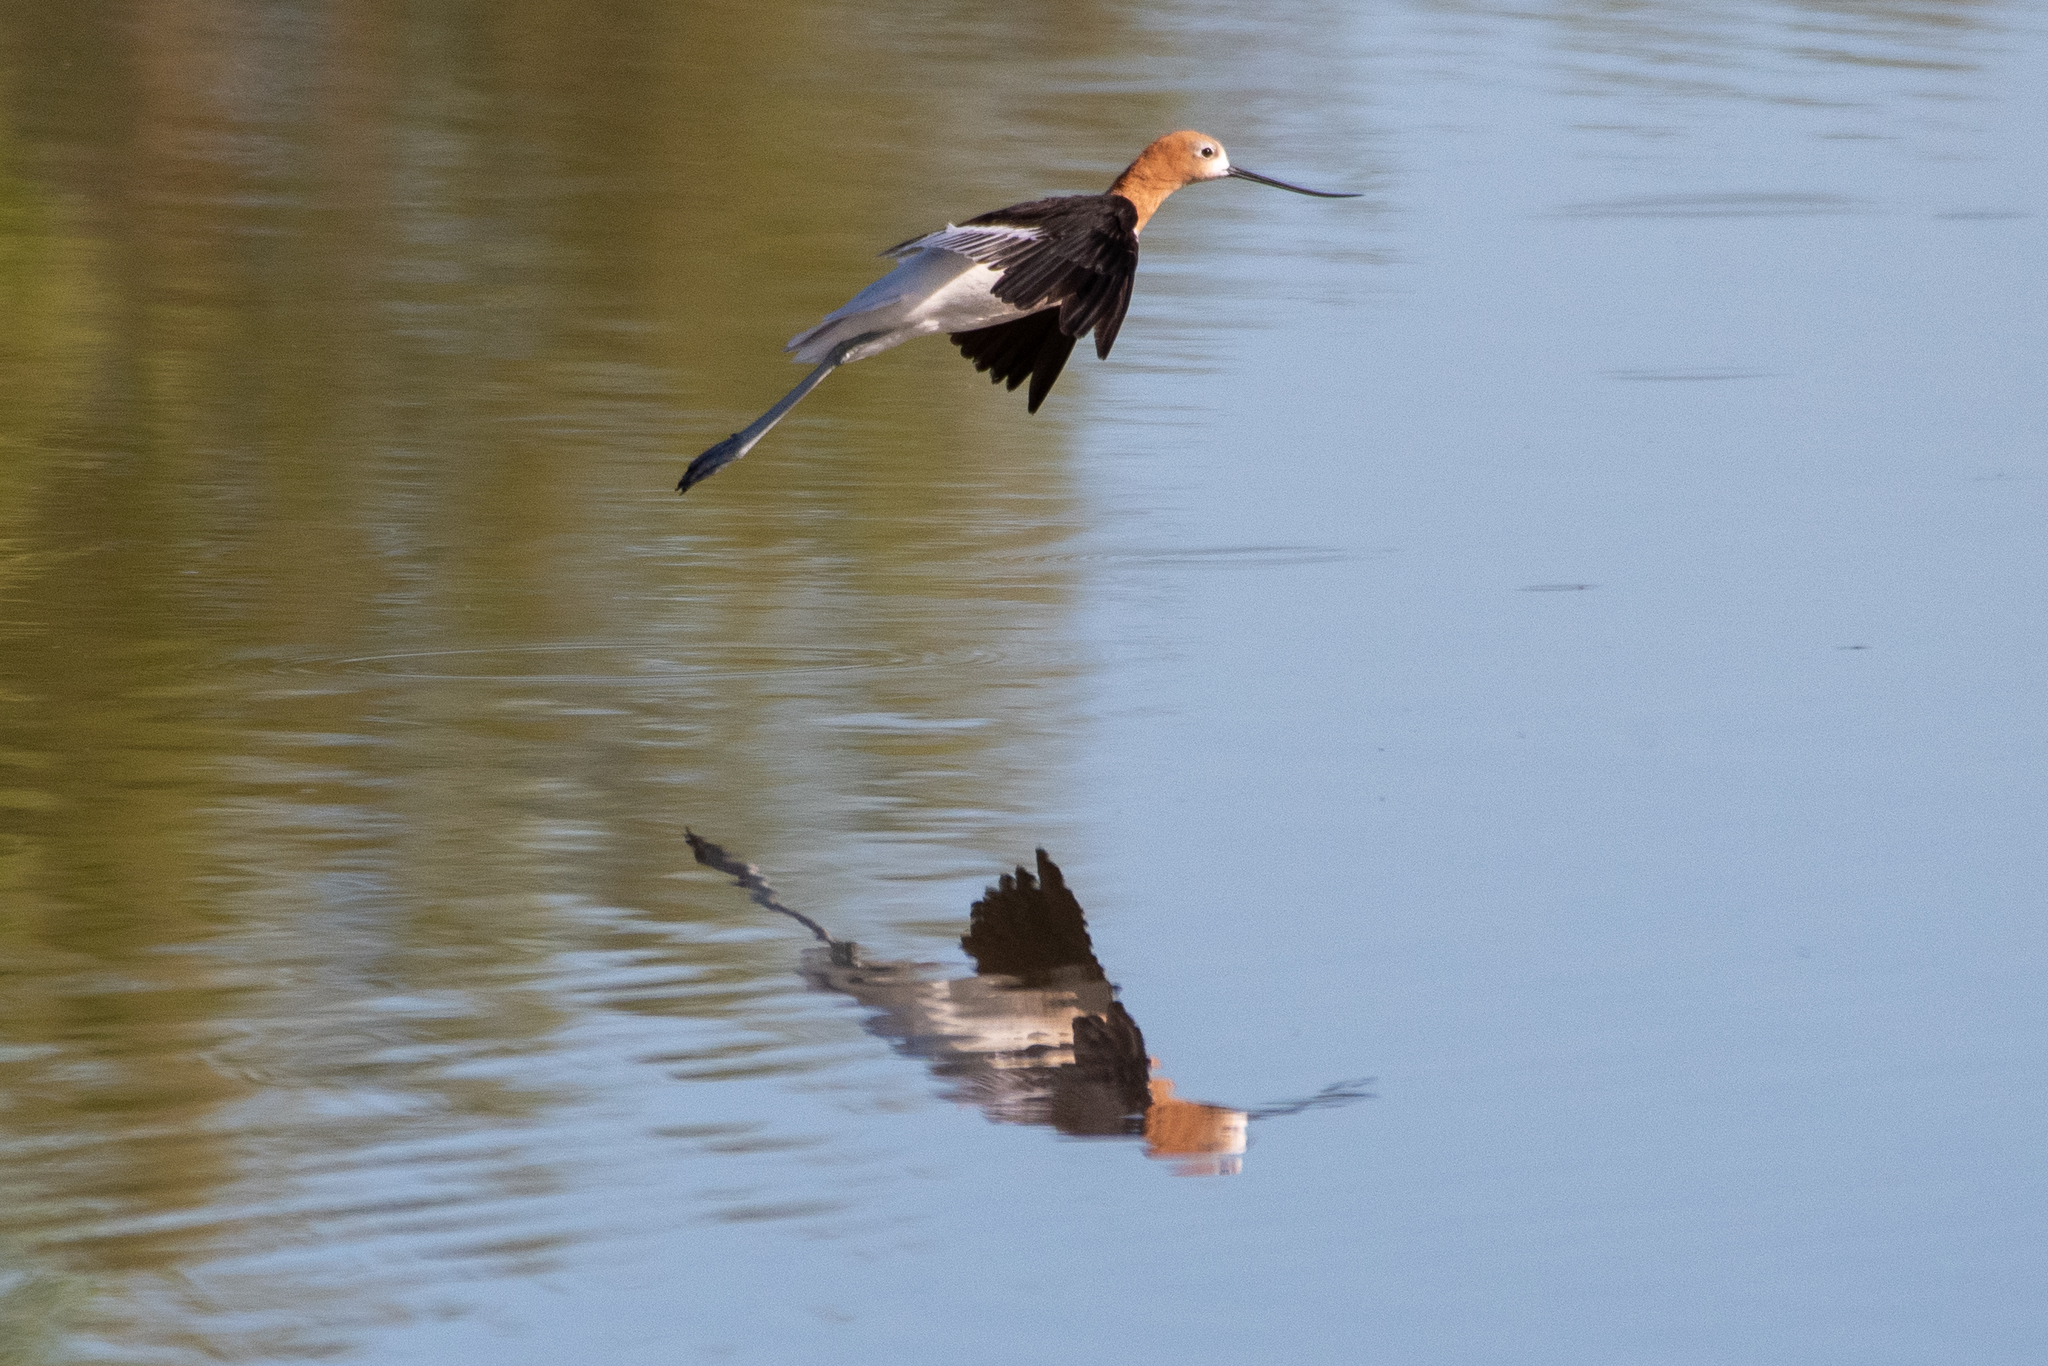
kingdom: Animalia
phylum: Chordata
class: Aves
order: Charadriiformes
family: Recurvirostridae
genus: Recurvirostra
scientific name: Recurvirostra americana
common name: American avocet
